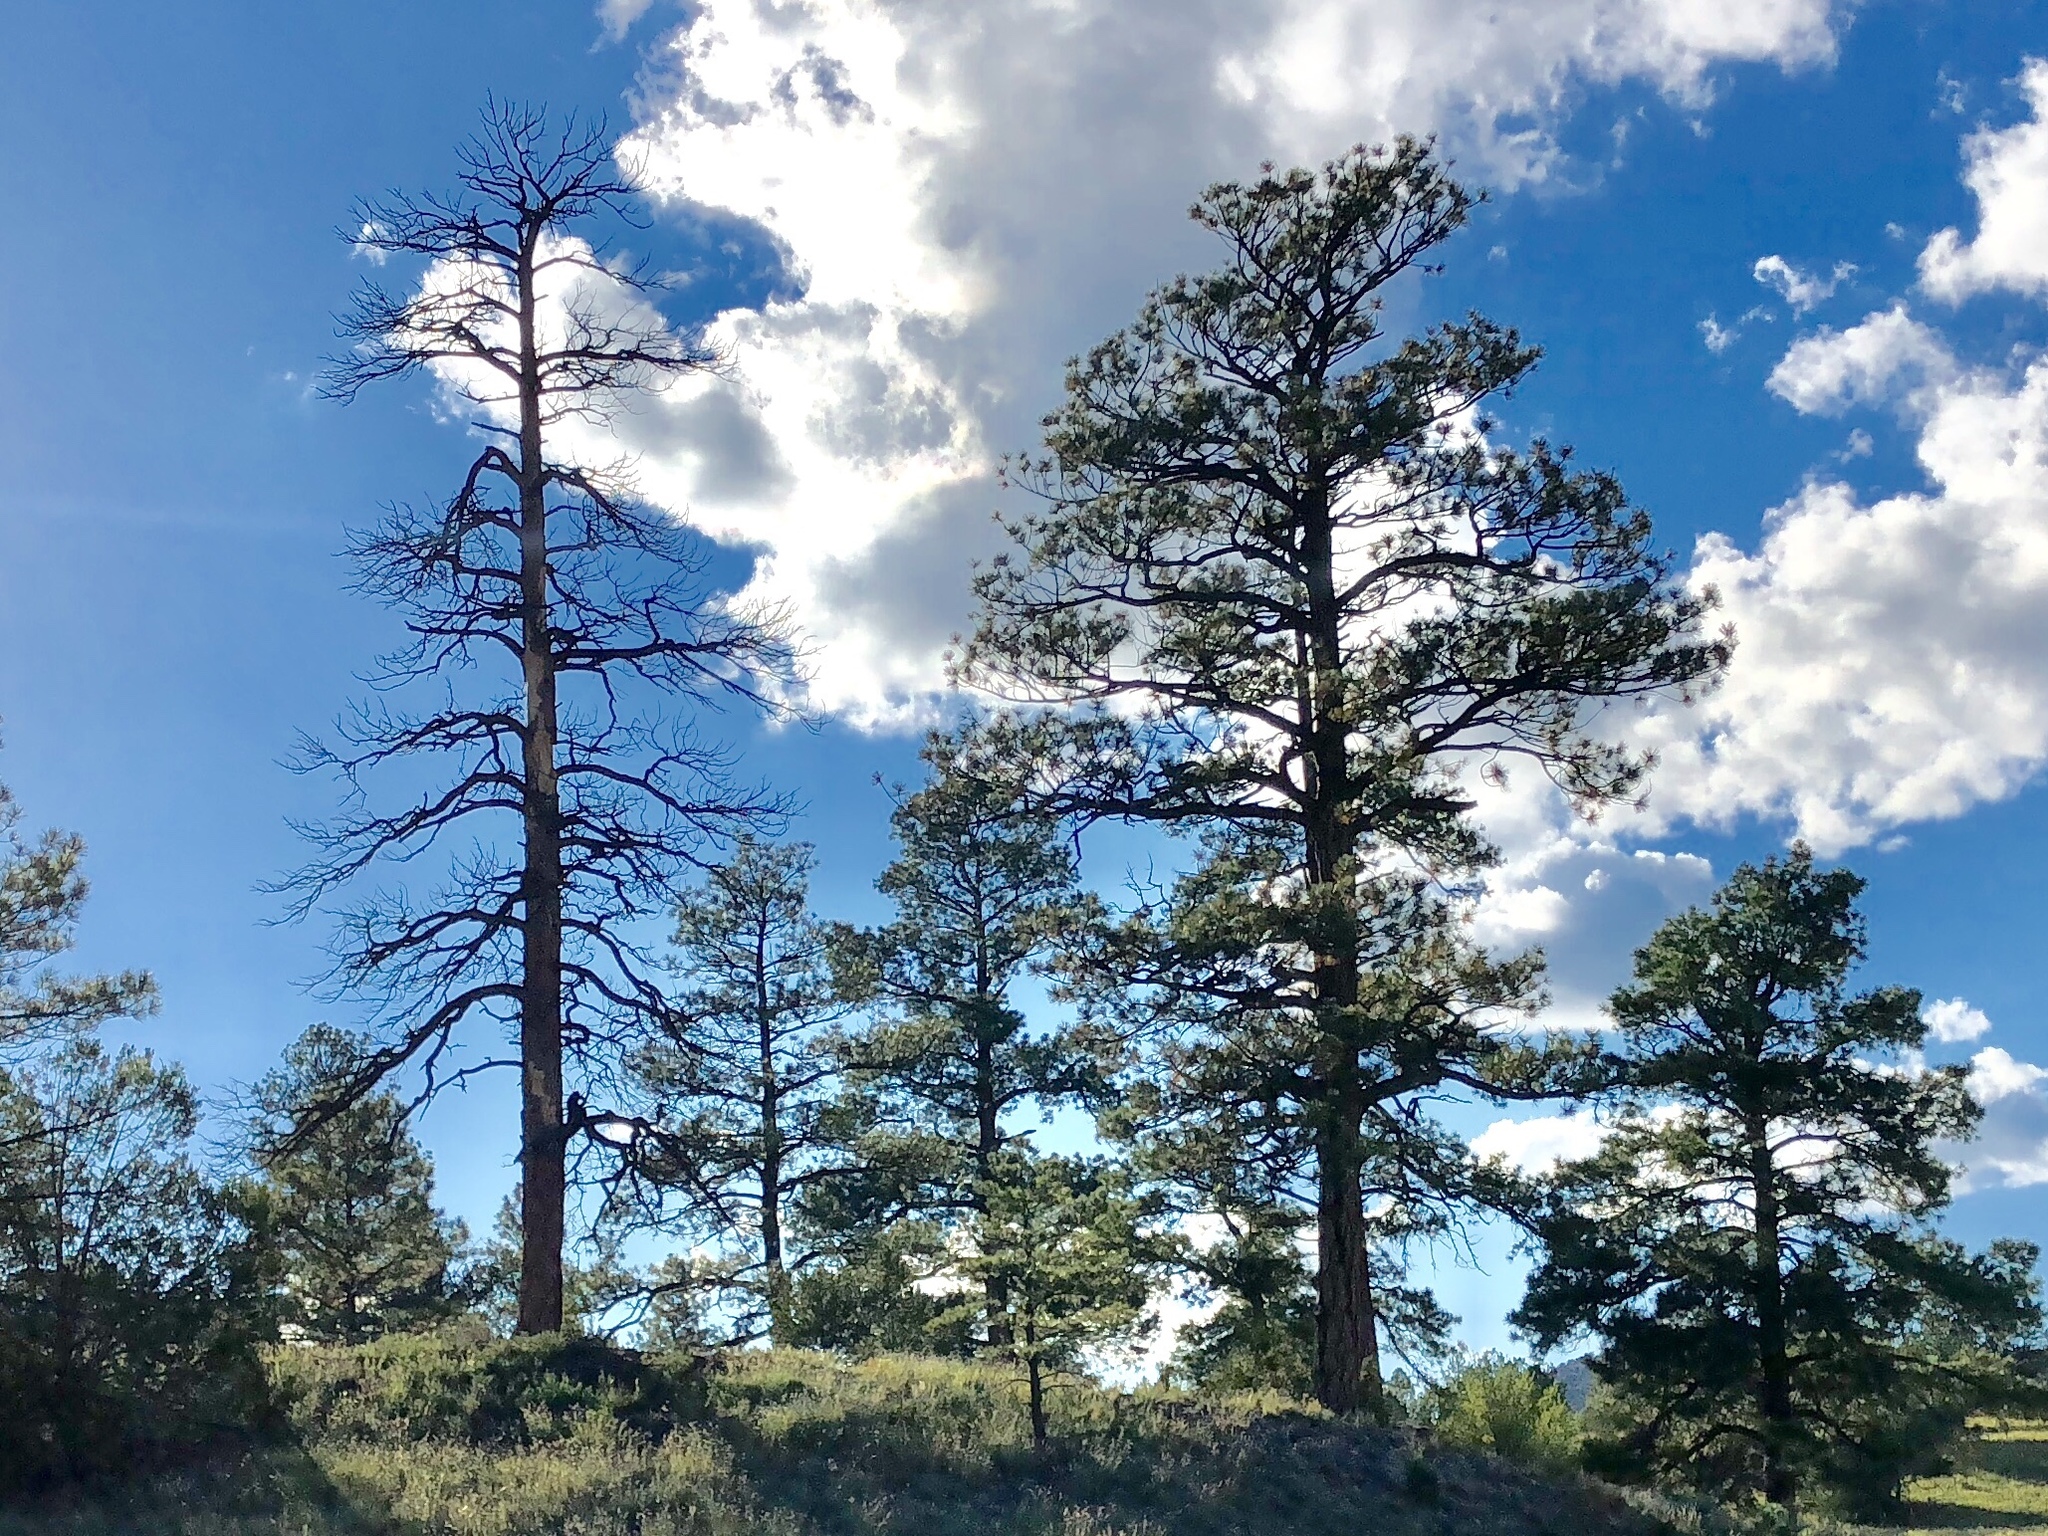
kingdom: Plantae
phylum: Tracheophyta
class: Pinopsida
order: Pinales
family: Pinaceae
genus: Pinus
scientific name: Pinus ponderosa
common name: Western yellow-pine
